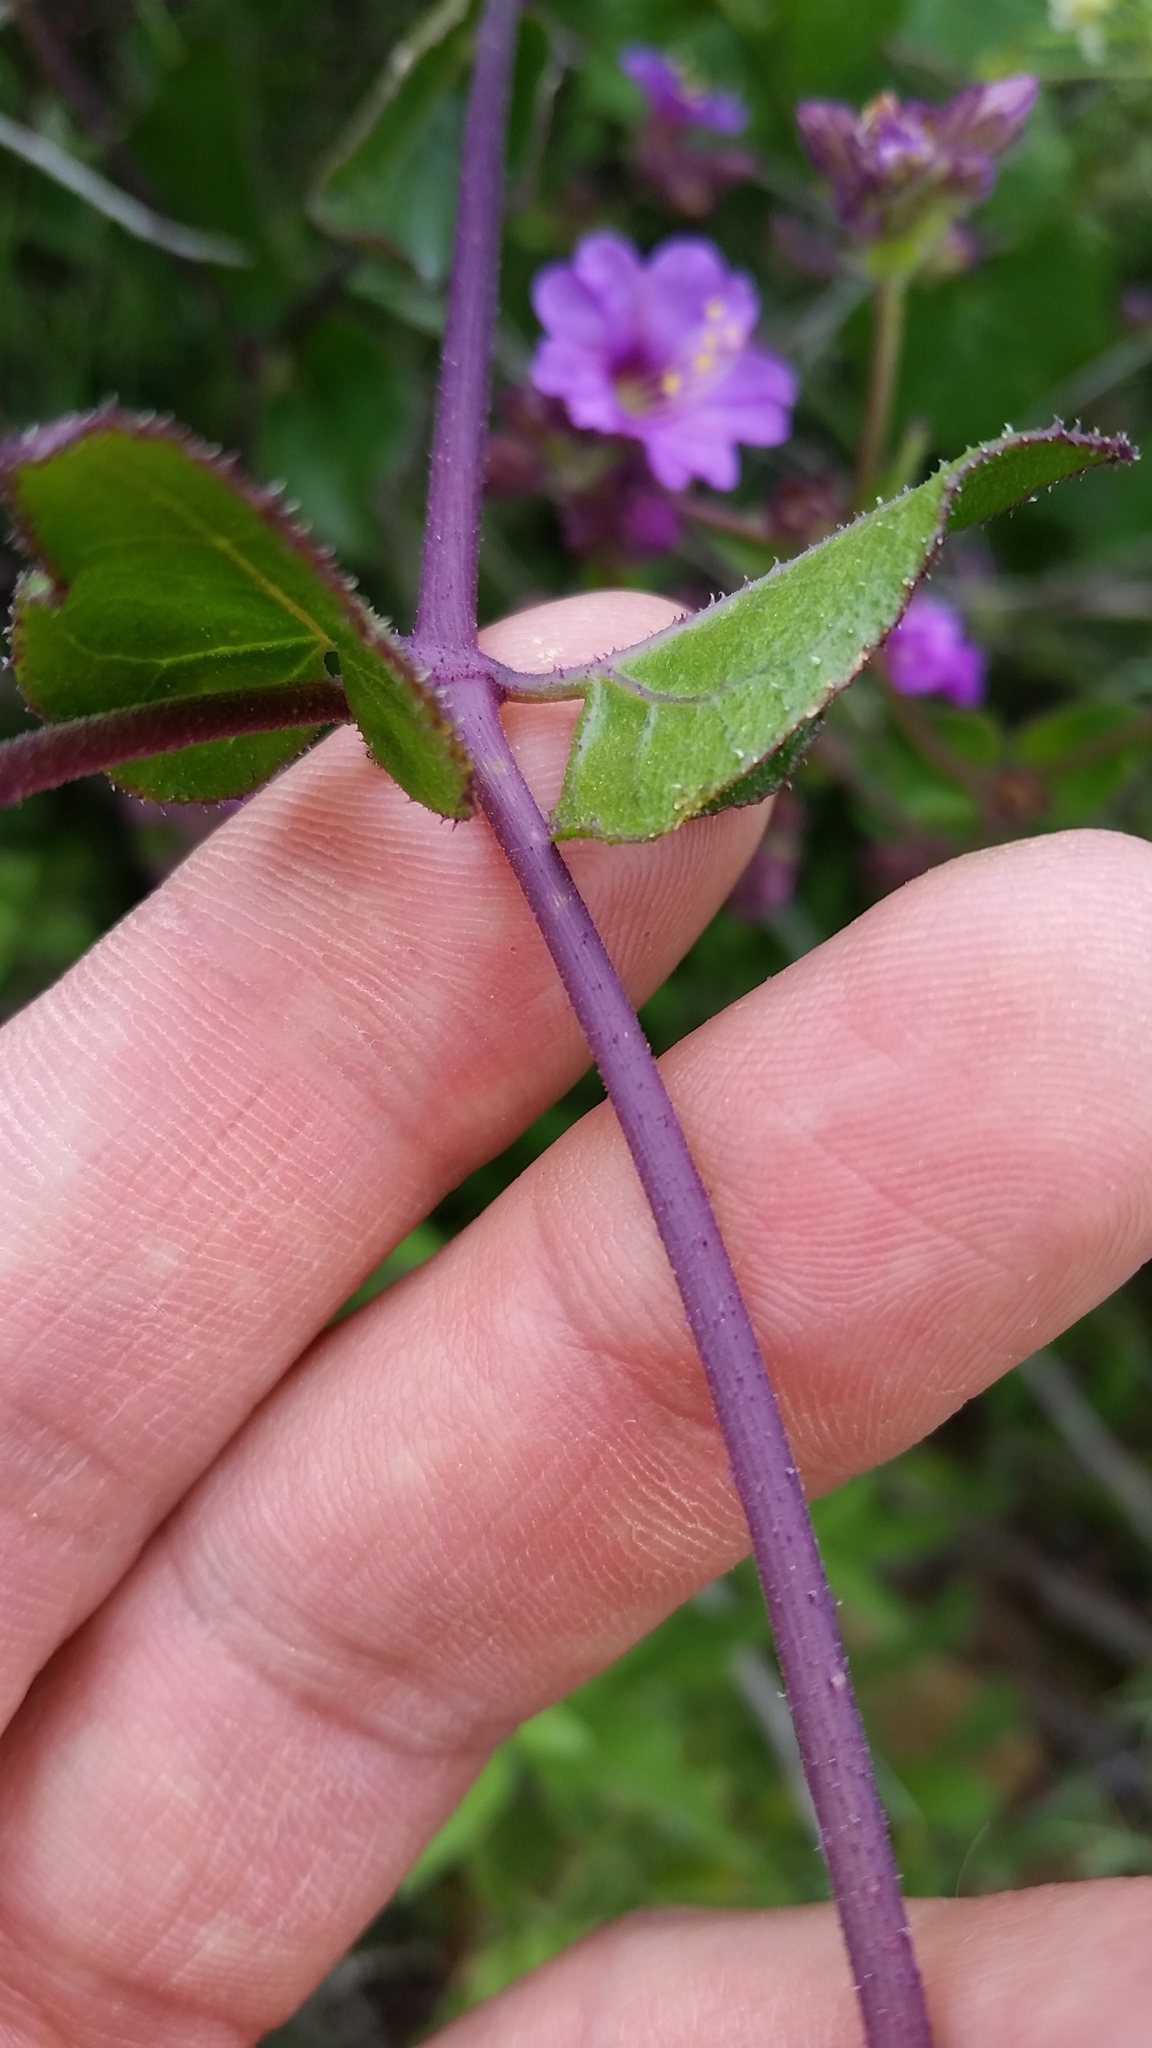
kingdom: Plantae
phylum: Tracheophyta
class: Magnoliopsida
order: Caryophyllales
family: Nyctaginaceae
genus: Mirabilis
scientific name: Mirabilis laevis
